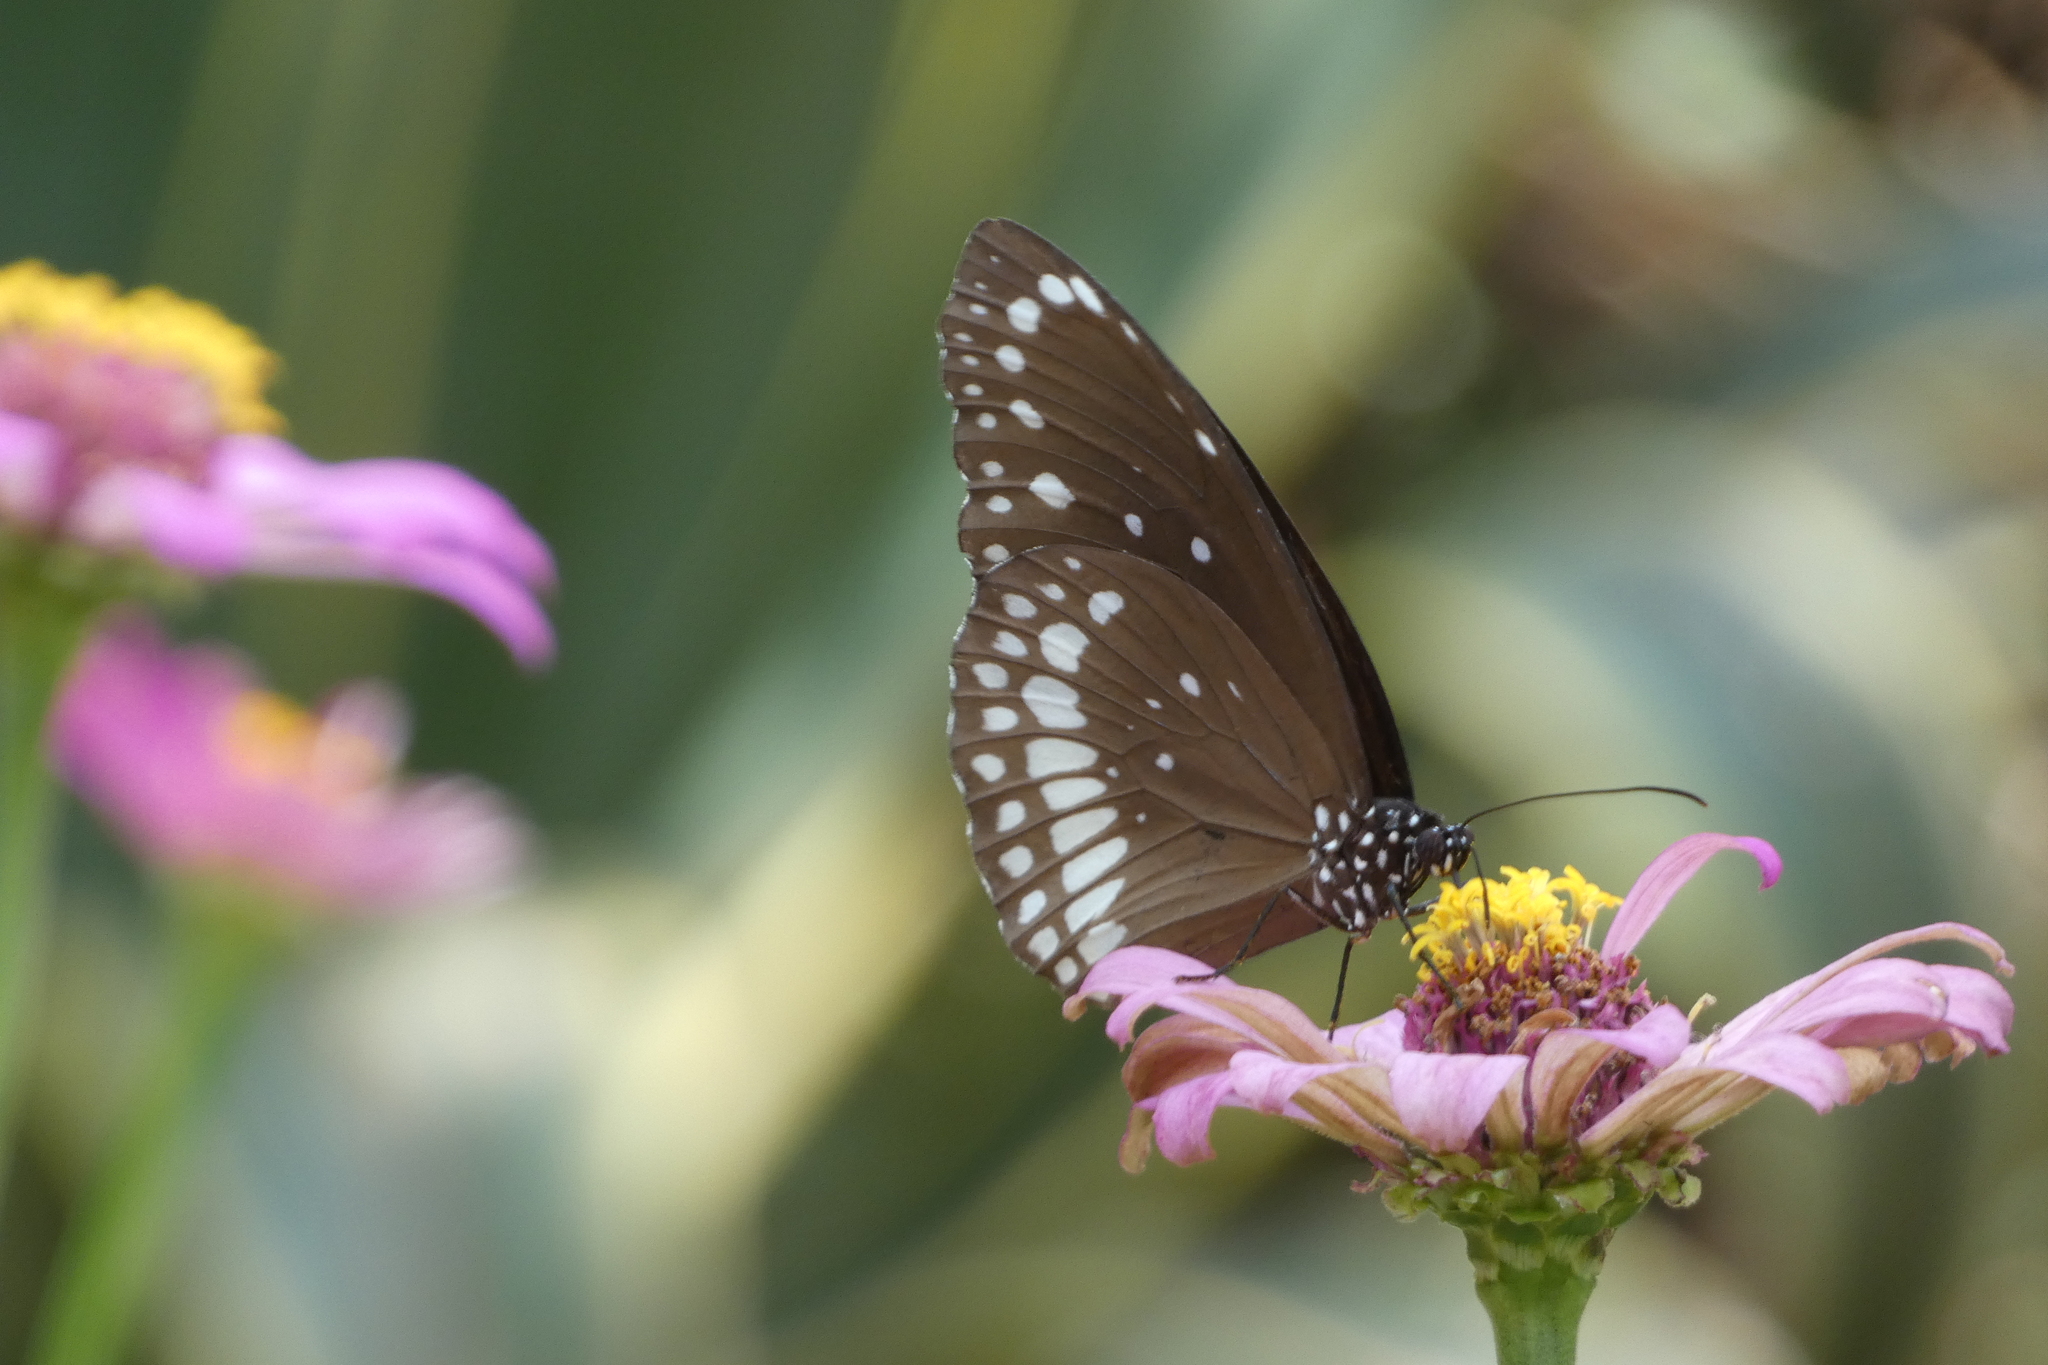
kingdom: Animalia
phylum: Arthropoda
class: Insecta
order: Lepidoptera
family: Nymphalidae
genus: Euploea
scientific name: Euploea core
